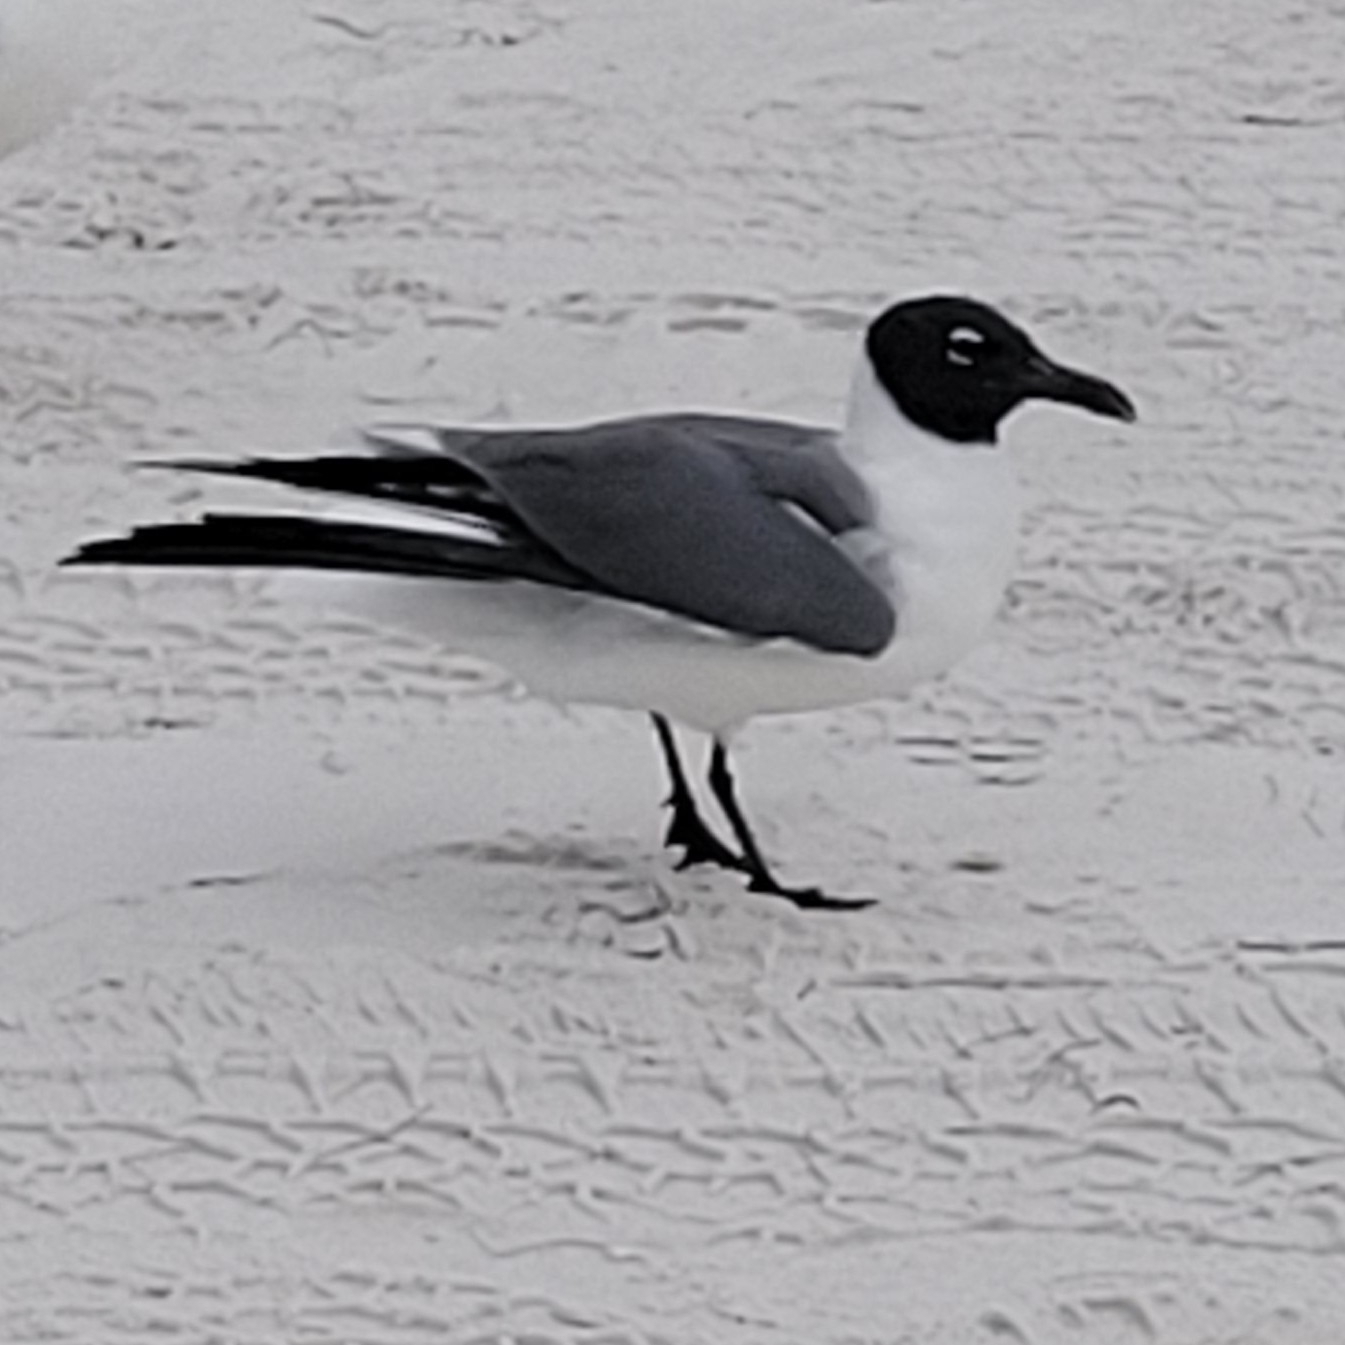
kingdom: Animalia
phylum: Chordata
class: Aves
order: Charadriiformes
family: Laridae
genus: Leucophaeus
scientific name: Leucophaeus atricilla
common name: Laughing gull
